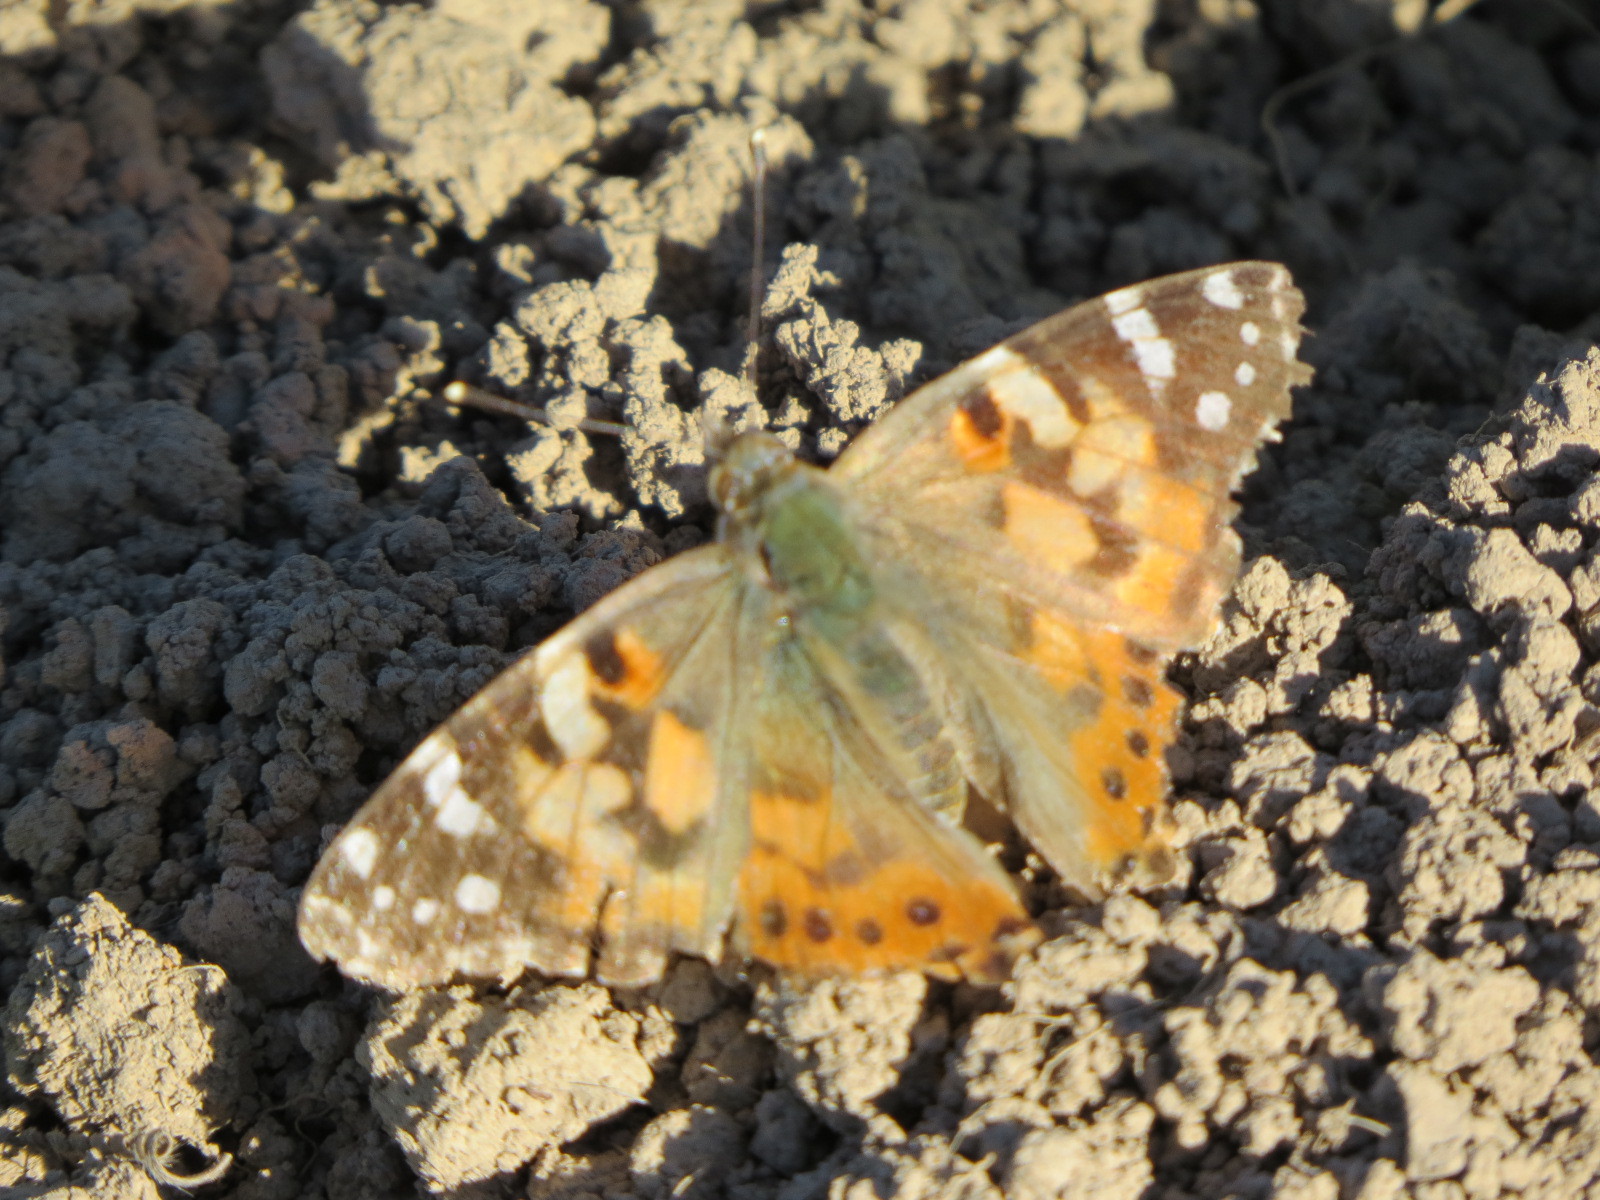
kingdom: Animalia
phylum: Arthropoda
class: Insecta
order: Lepidoptera
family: Nymphalidae
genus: Vanessa
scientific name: Vanessa cardui
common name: Painted lady
